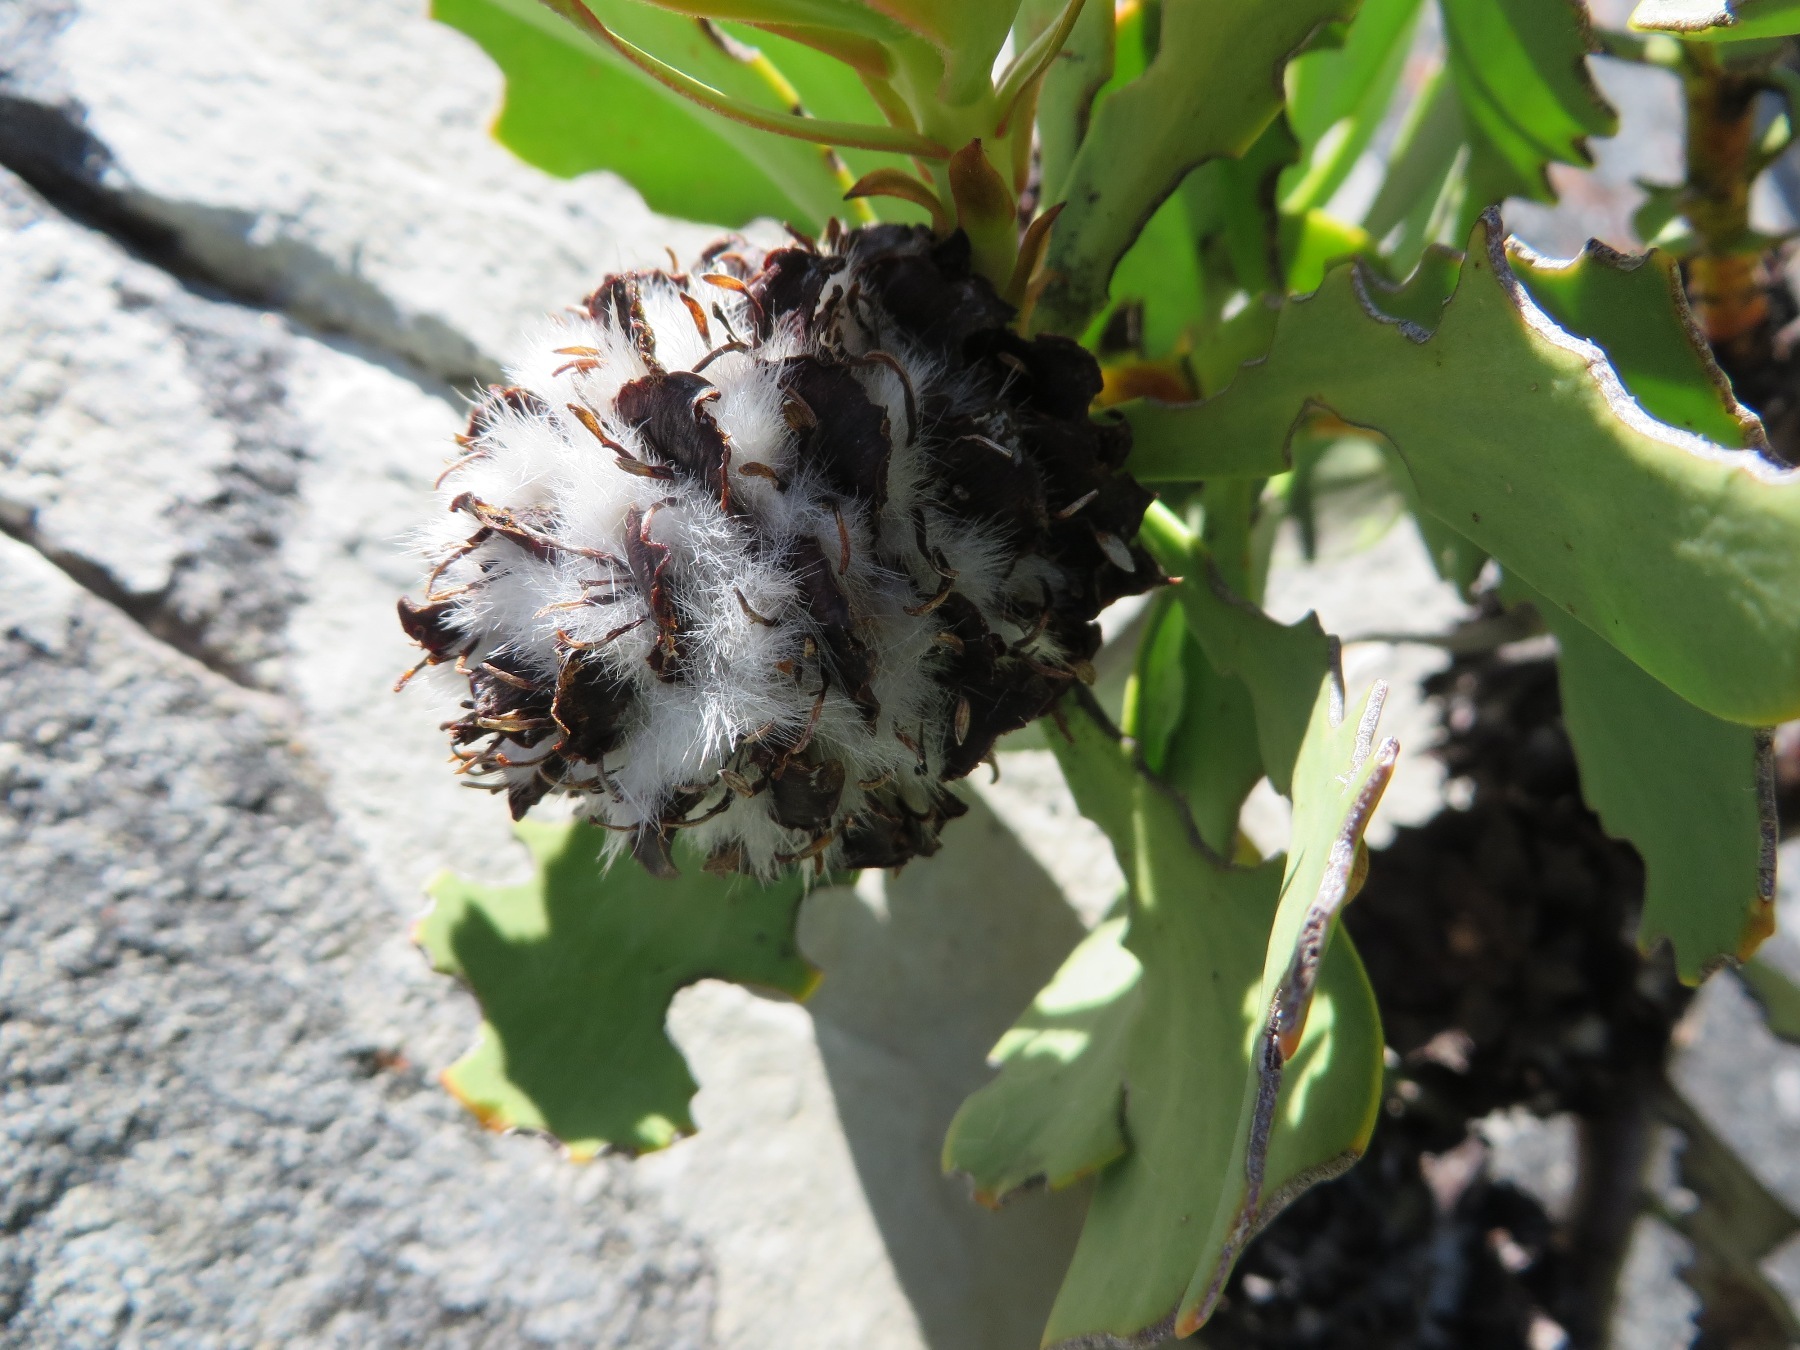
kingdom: Plantae
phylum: Tracheophyta
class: Magnoliopsida
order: Proteales
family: Proteaceae
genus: Leucadendron
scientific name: Leucadendron arcuatum
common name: Red-edge conebush
